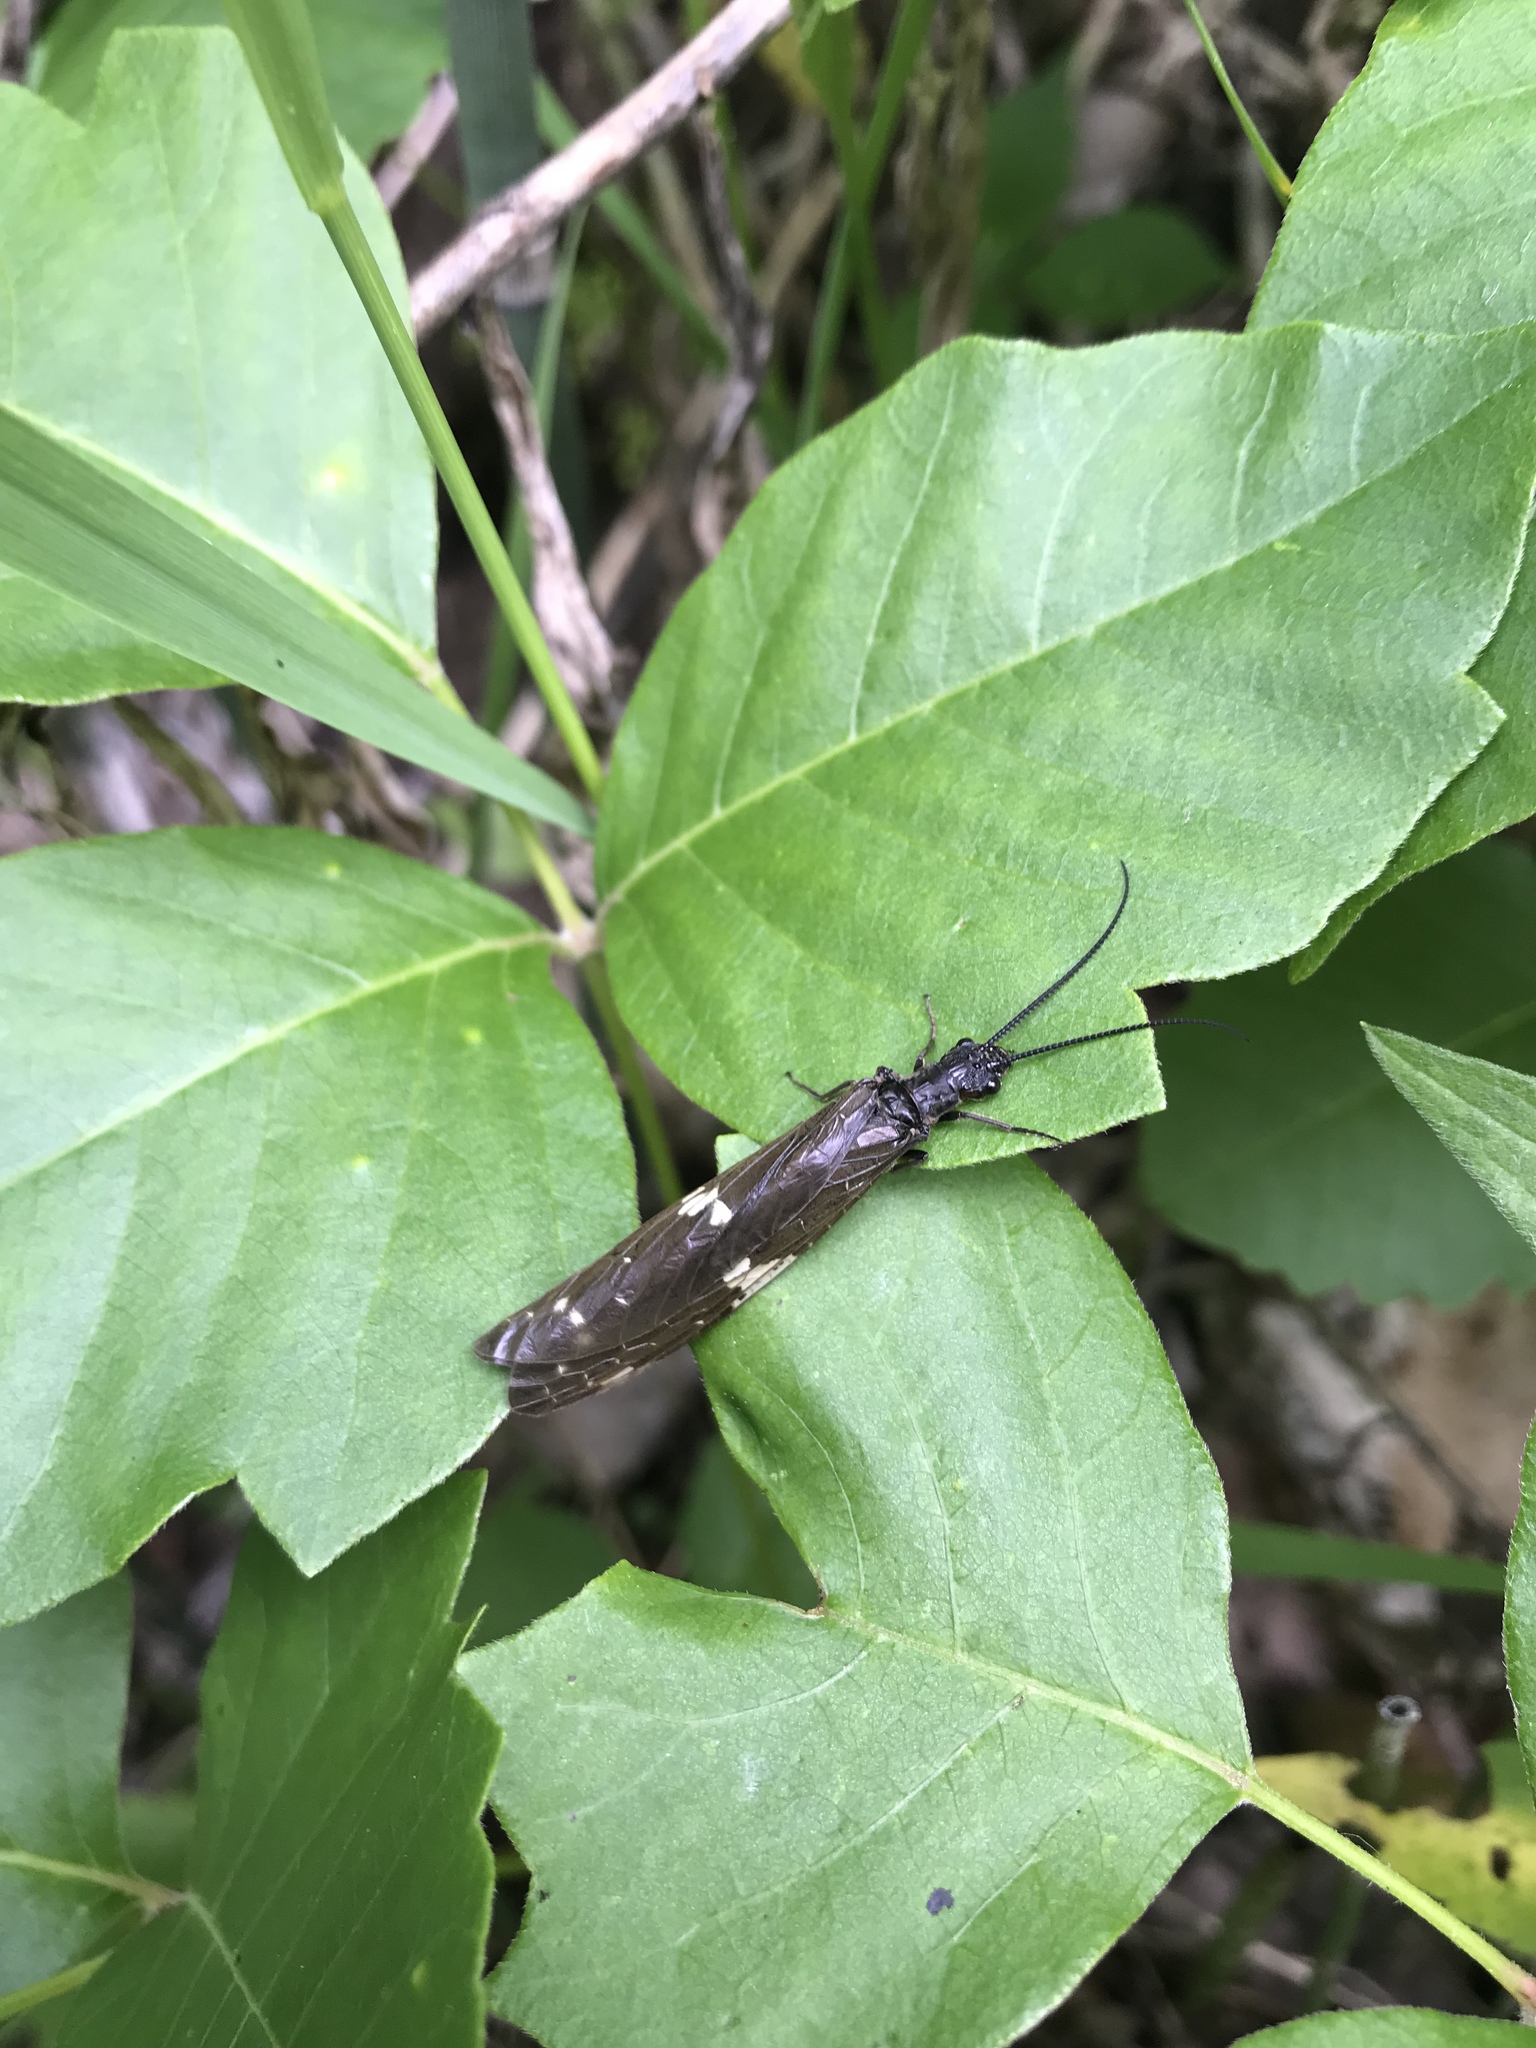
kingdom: Animalia
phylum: Arthropoda
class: Insecta
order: Megaloptera
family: Corydalidae
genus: Nigronia
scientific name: Nigronia serricornis
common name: Serrate dark fishfly
